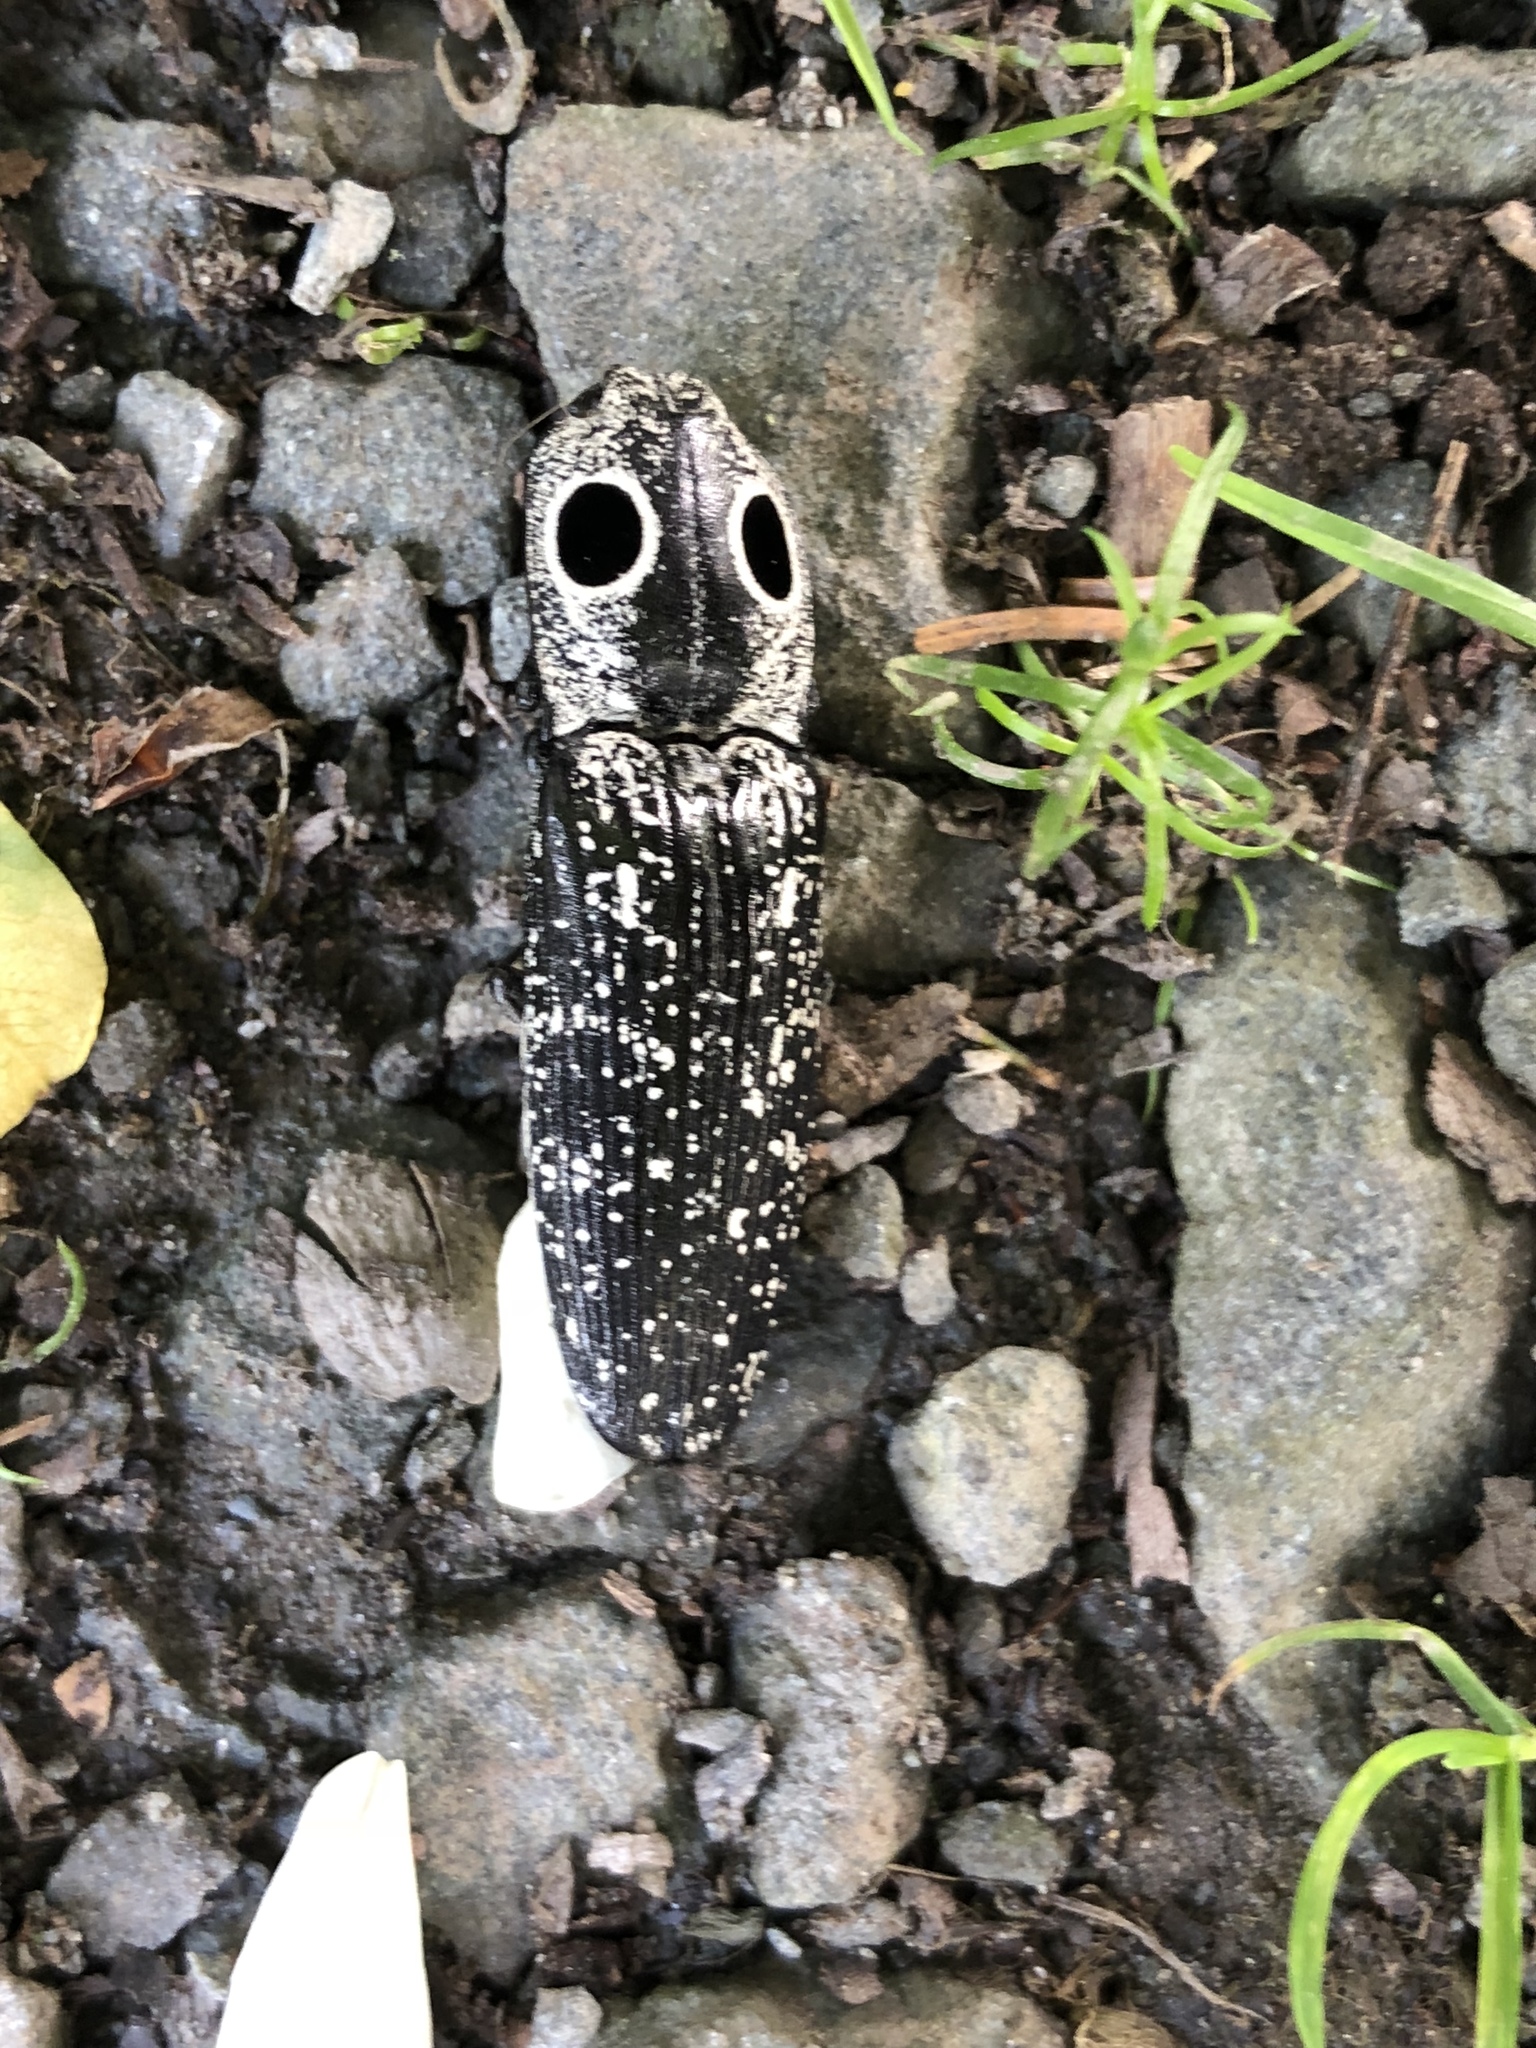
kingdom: Animalia
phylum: Arthropoda
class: Insecta
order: Coleoptera
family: Elateridae
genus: Alaus
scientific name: Alaus oculatus
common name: Eastern eyed click beetle
